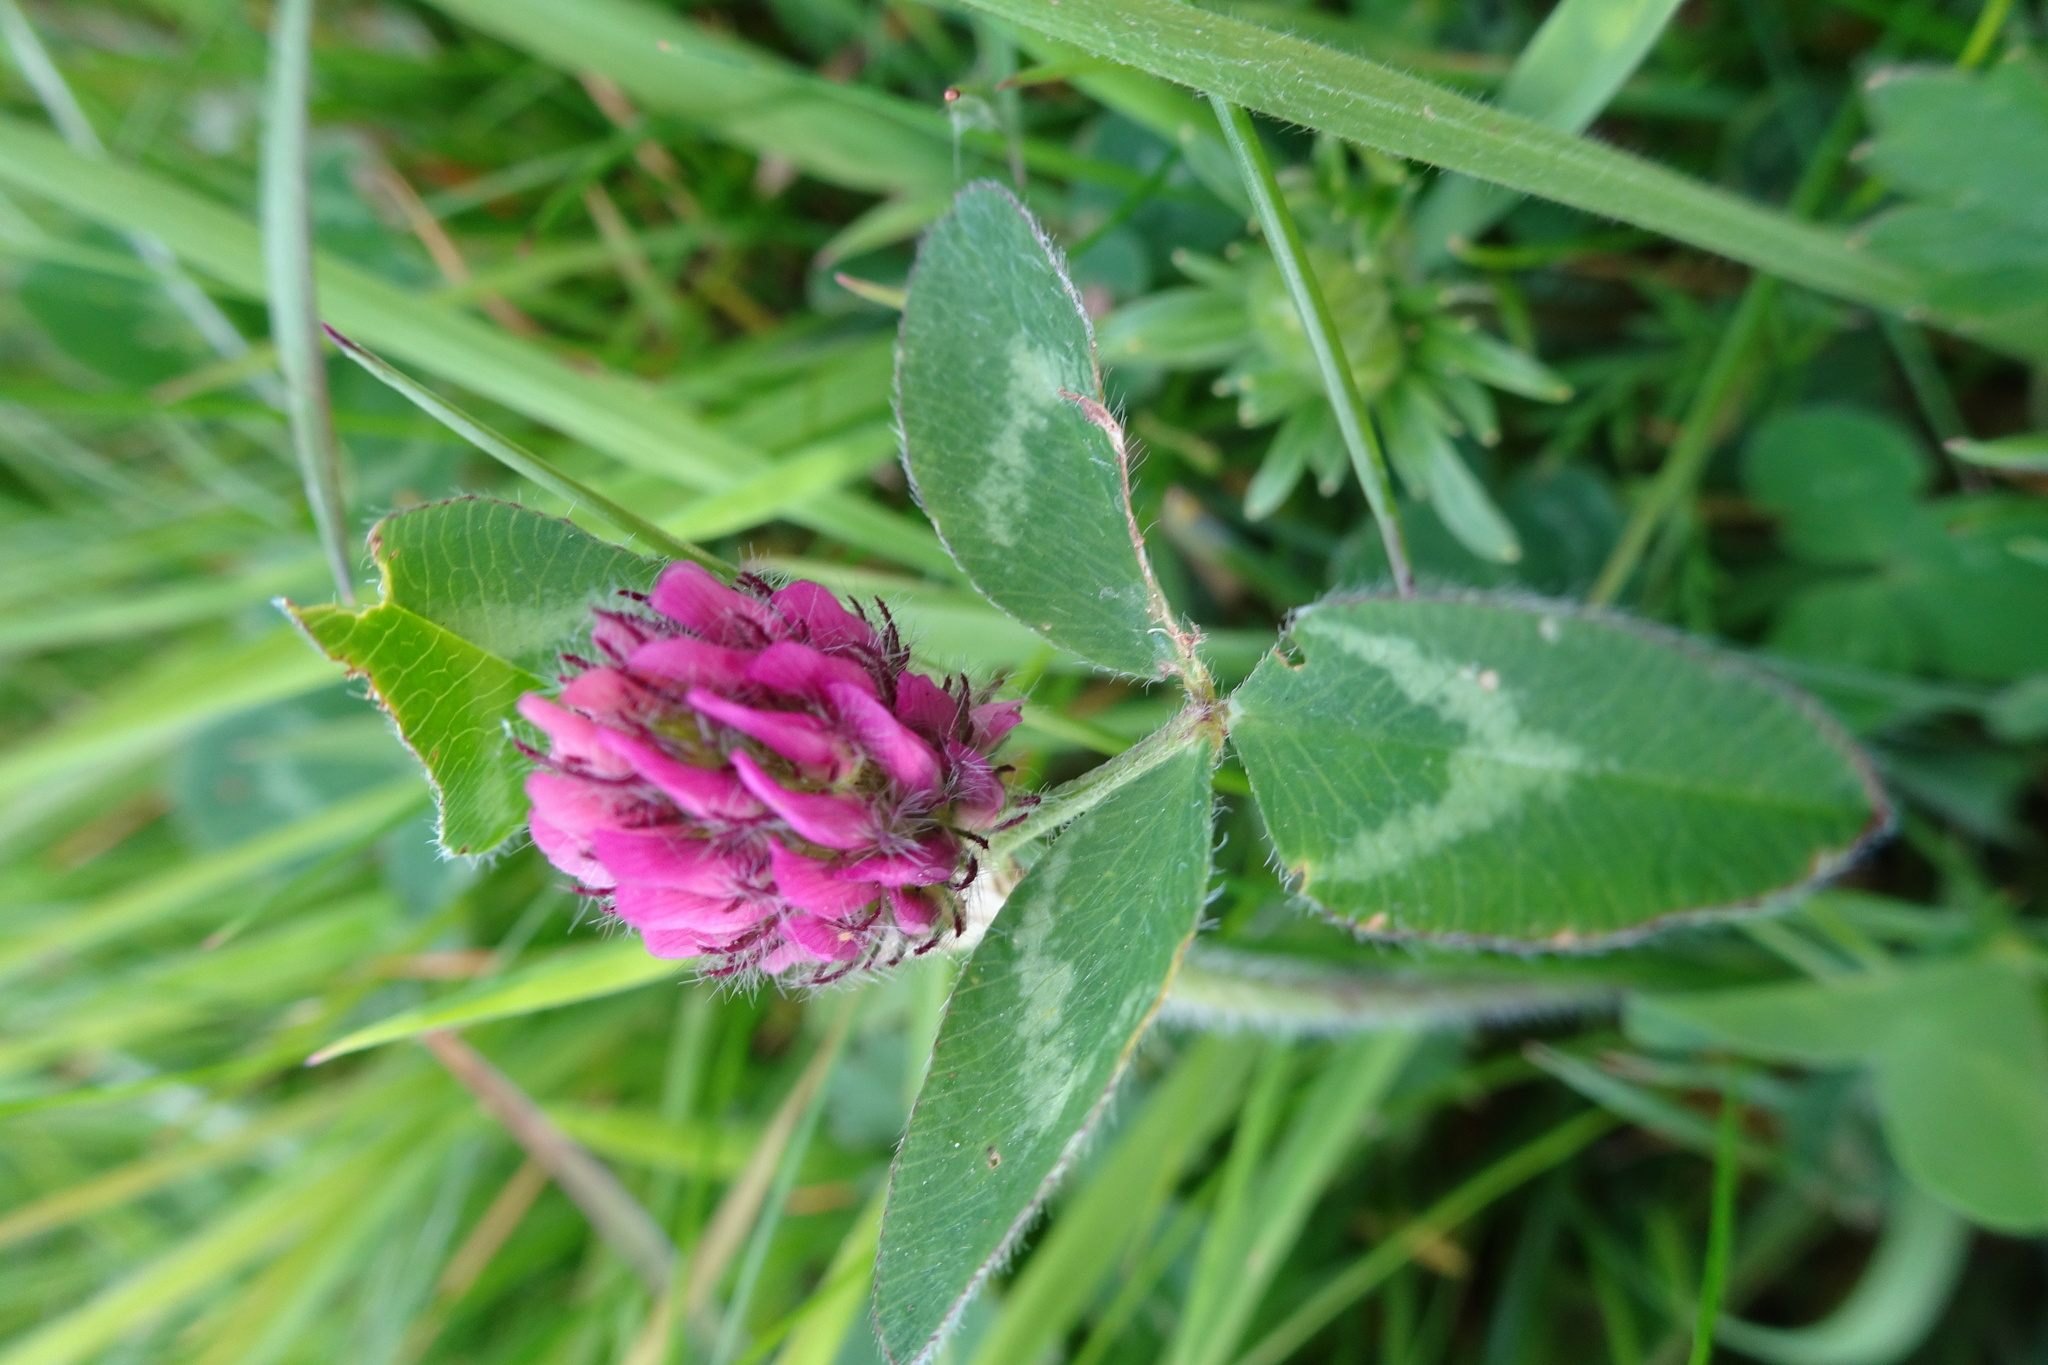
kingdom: Plantae
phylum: Tracheophyta
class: Magnoliopsida
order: Fabales
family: Fabaceae
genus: Trifolium
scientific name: Trifolium pratense
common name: Red clover
